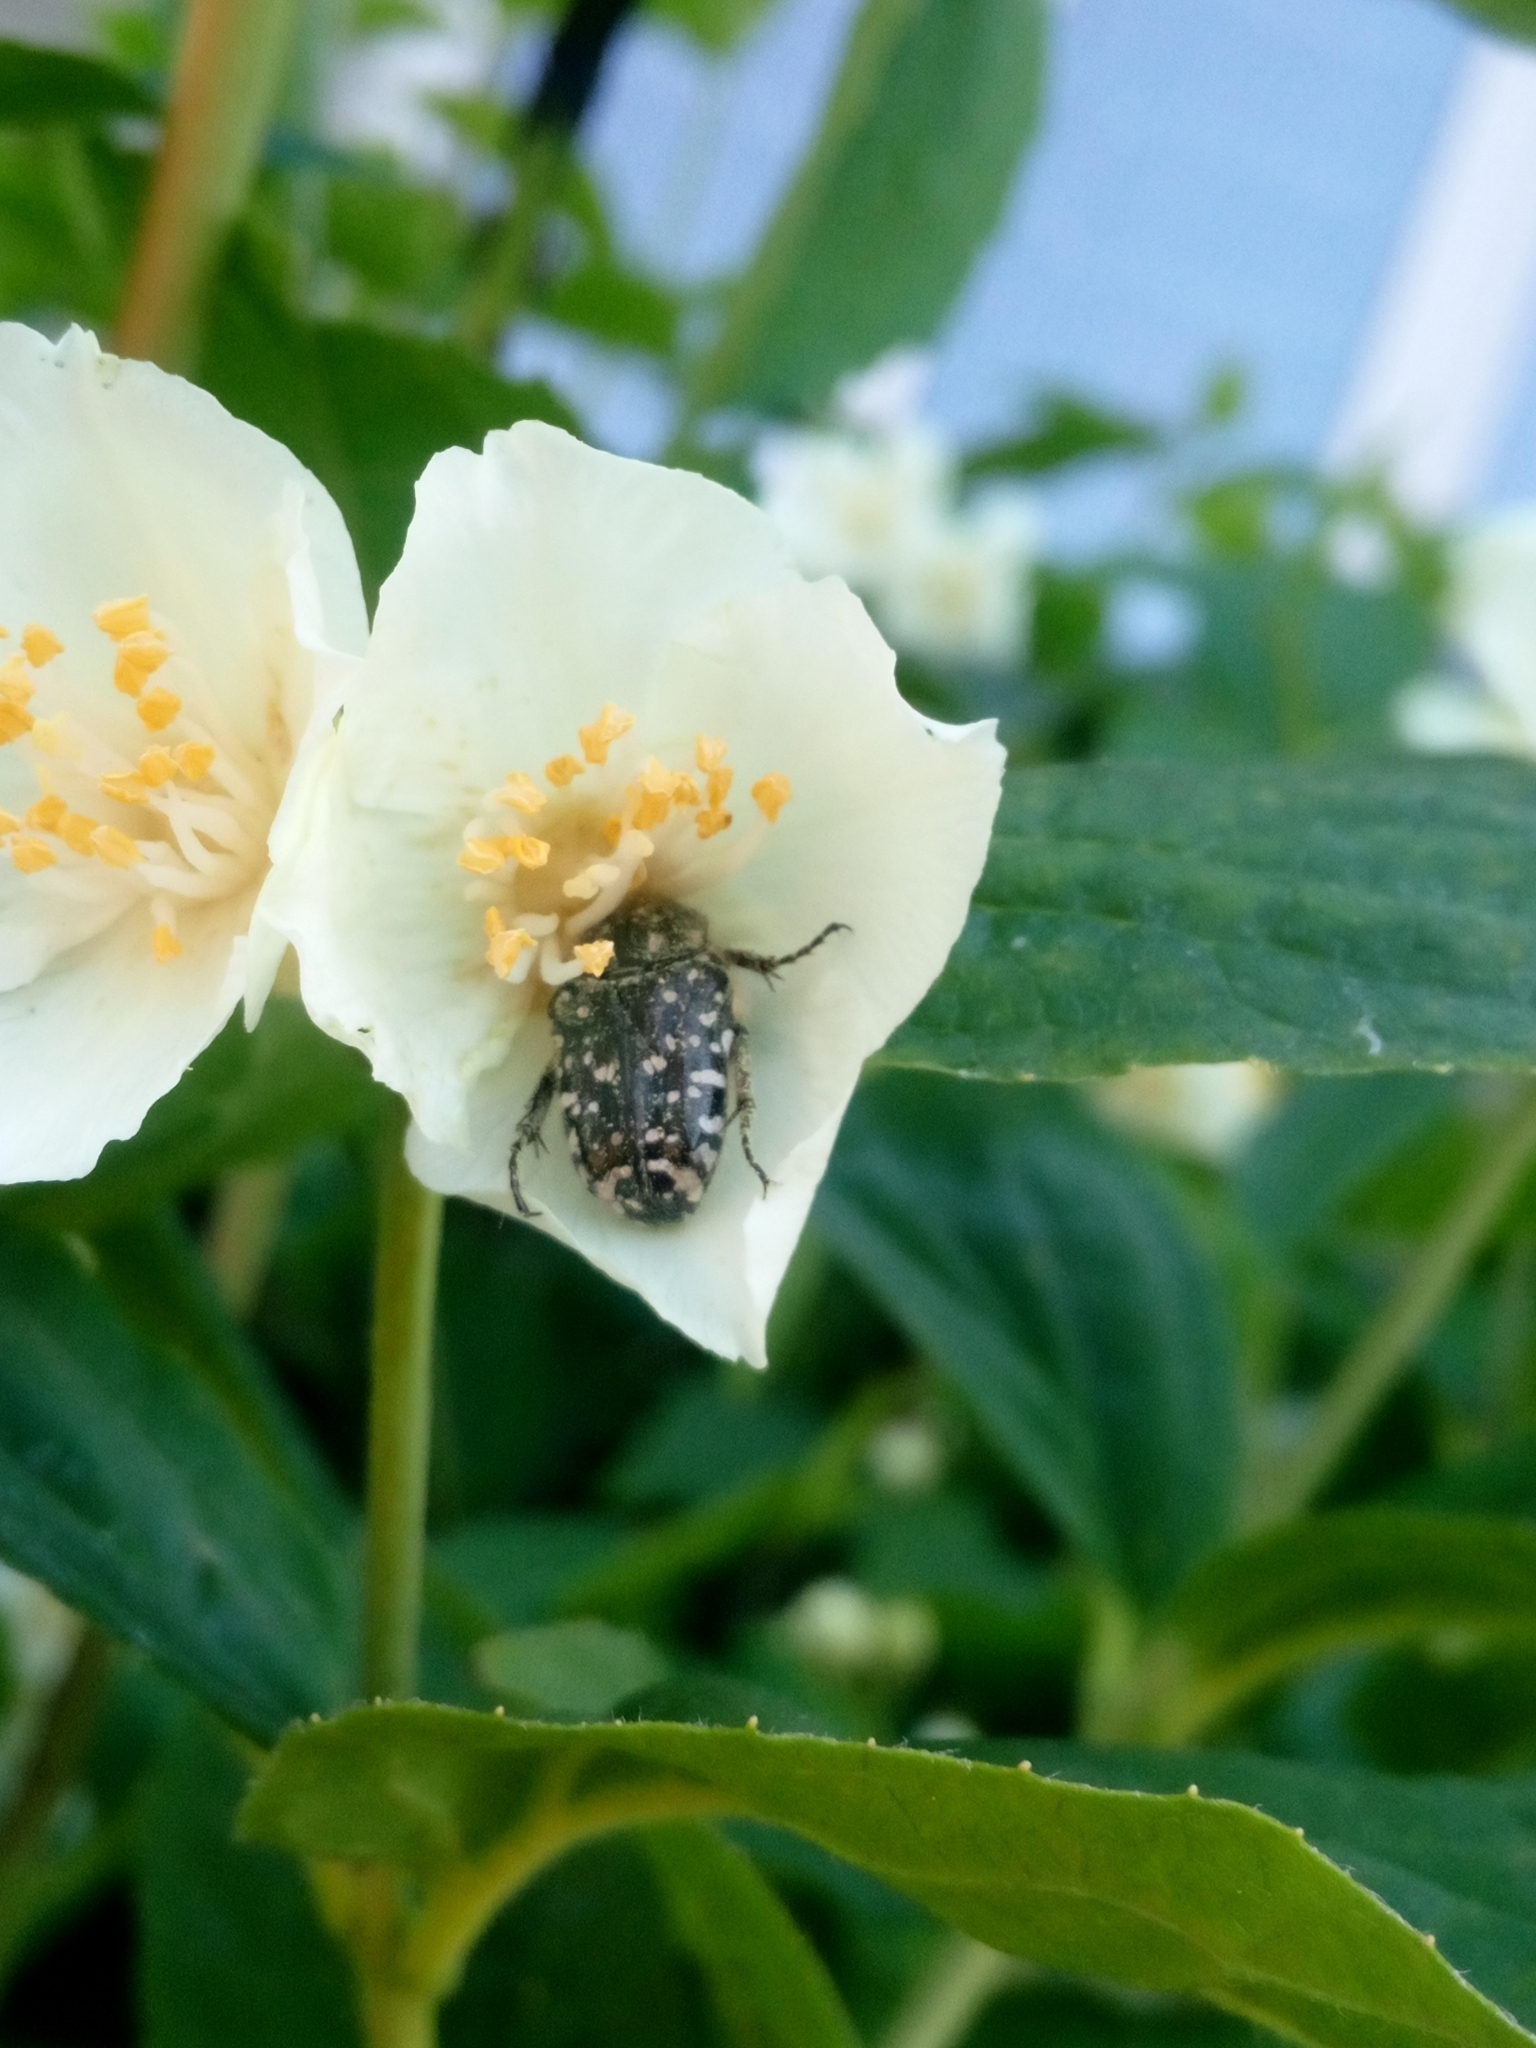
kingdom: Animalia
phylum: Arthropoda
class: Insecta
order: Coleoptera
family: Scarabaeidae
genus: Oxythyrea
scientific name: Oxythyrea funesta
